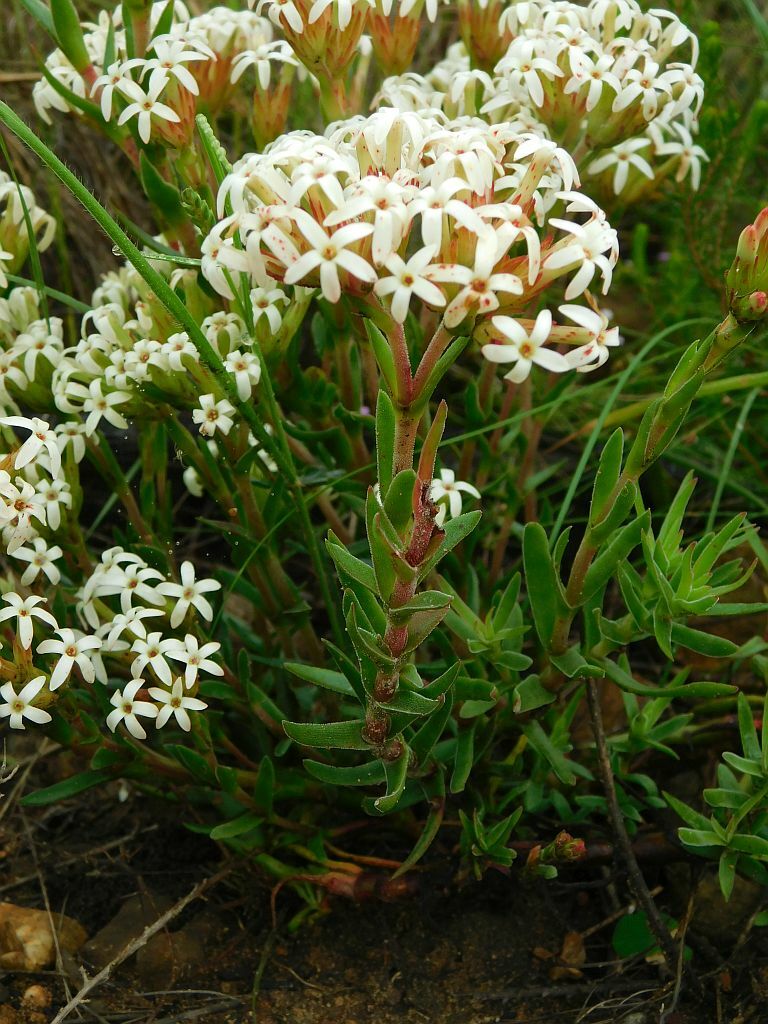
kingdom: Plantae
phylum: Tracheophyta
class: Magnoliopsida
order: Saxifragales
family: Crassulaceae
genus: Crassula
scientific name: Crassula fascicularis
